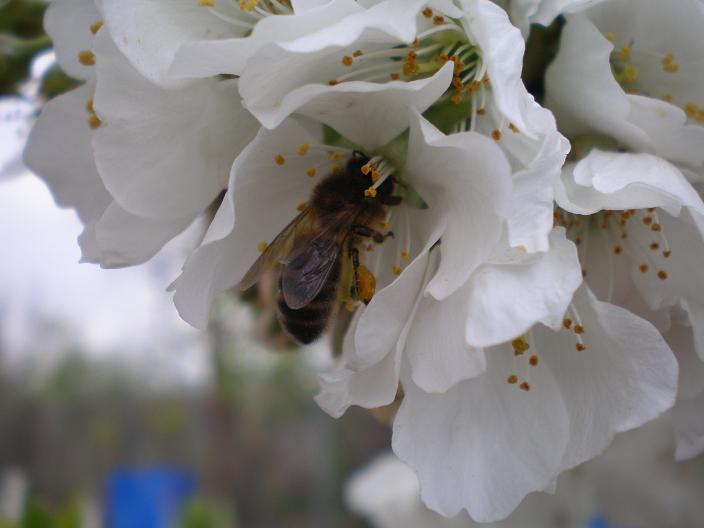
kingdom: Animalia
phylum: Arthropoda
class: Insecta
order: Hymenoptera
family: Apidae
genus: Apis
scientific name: Apis mellifera
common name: Honey bee
